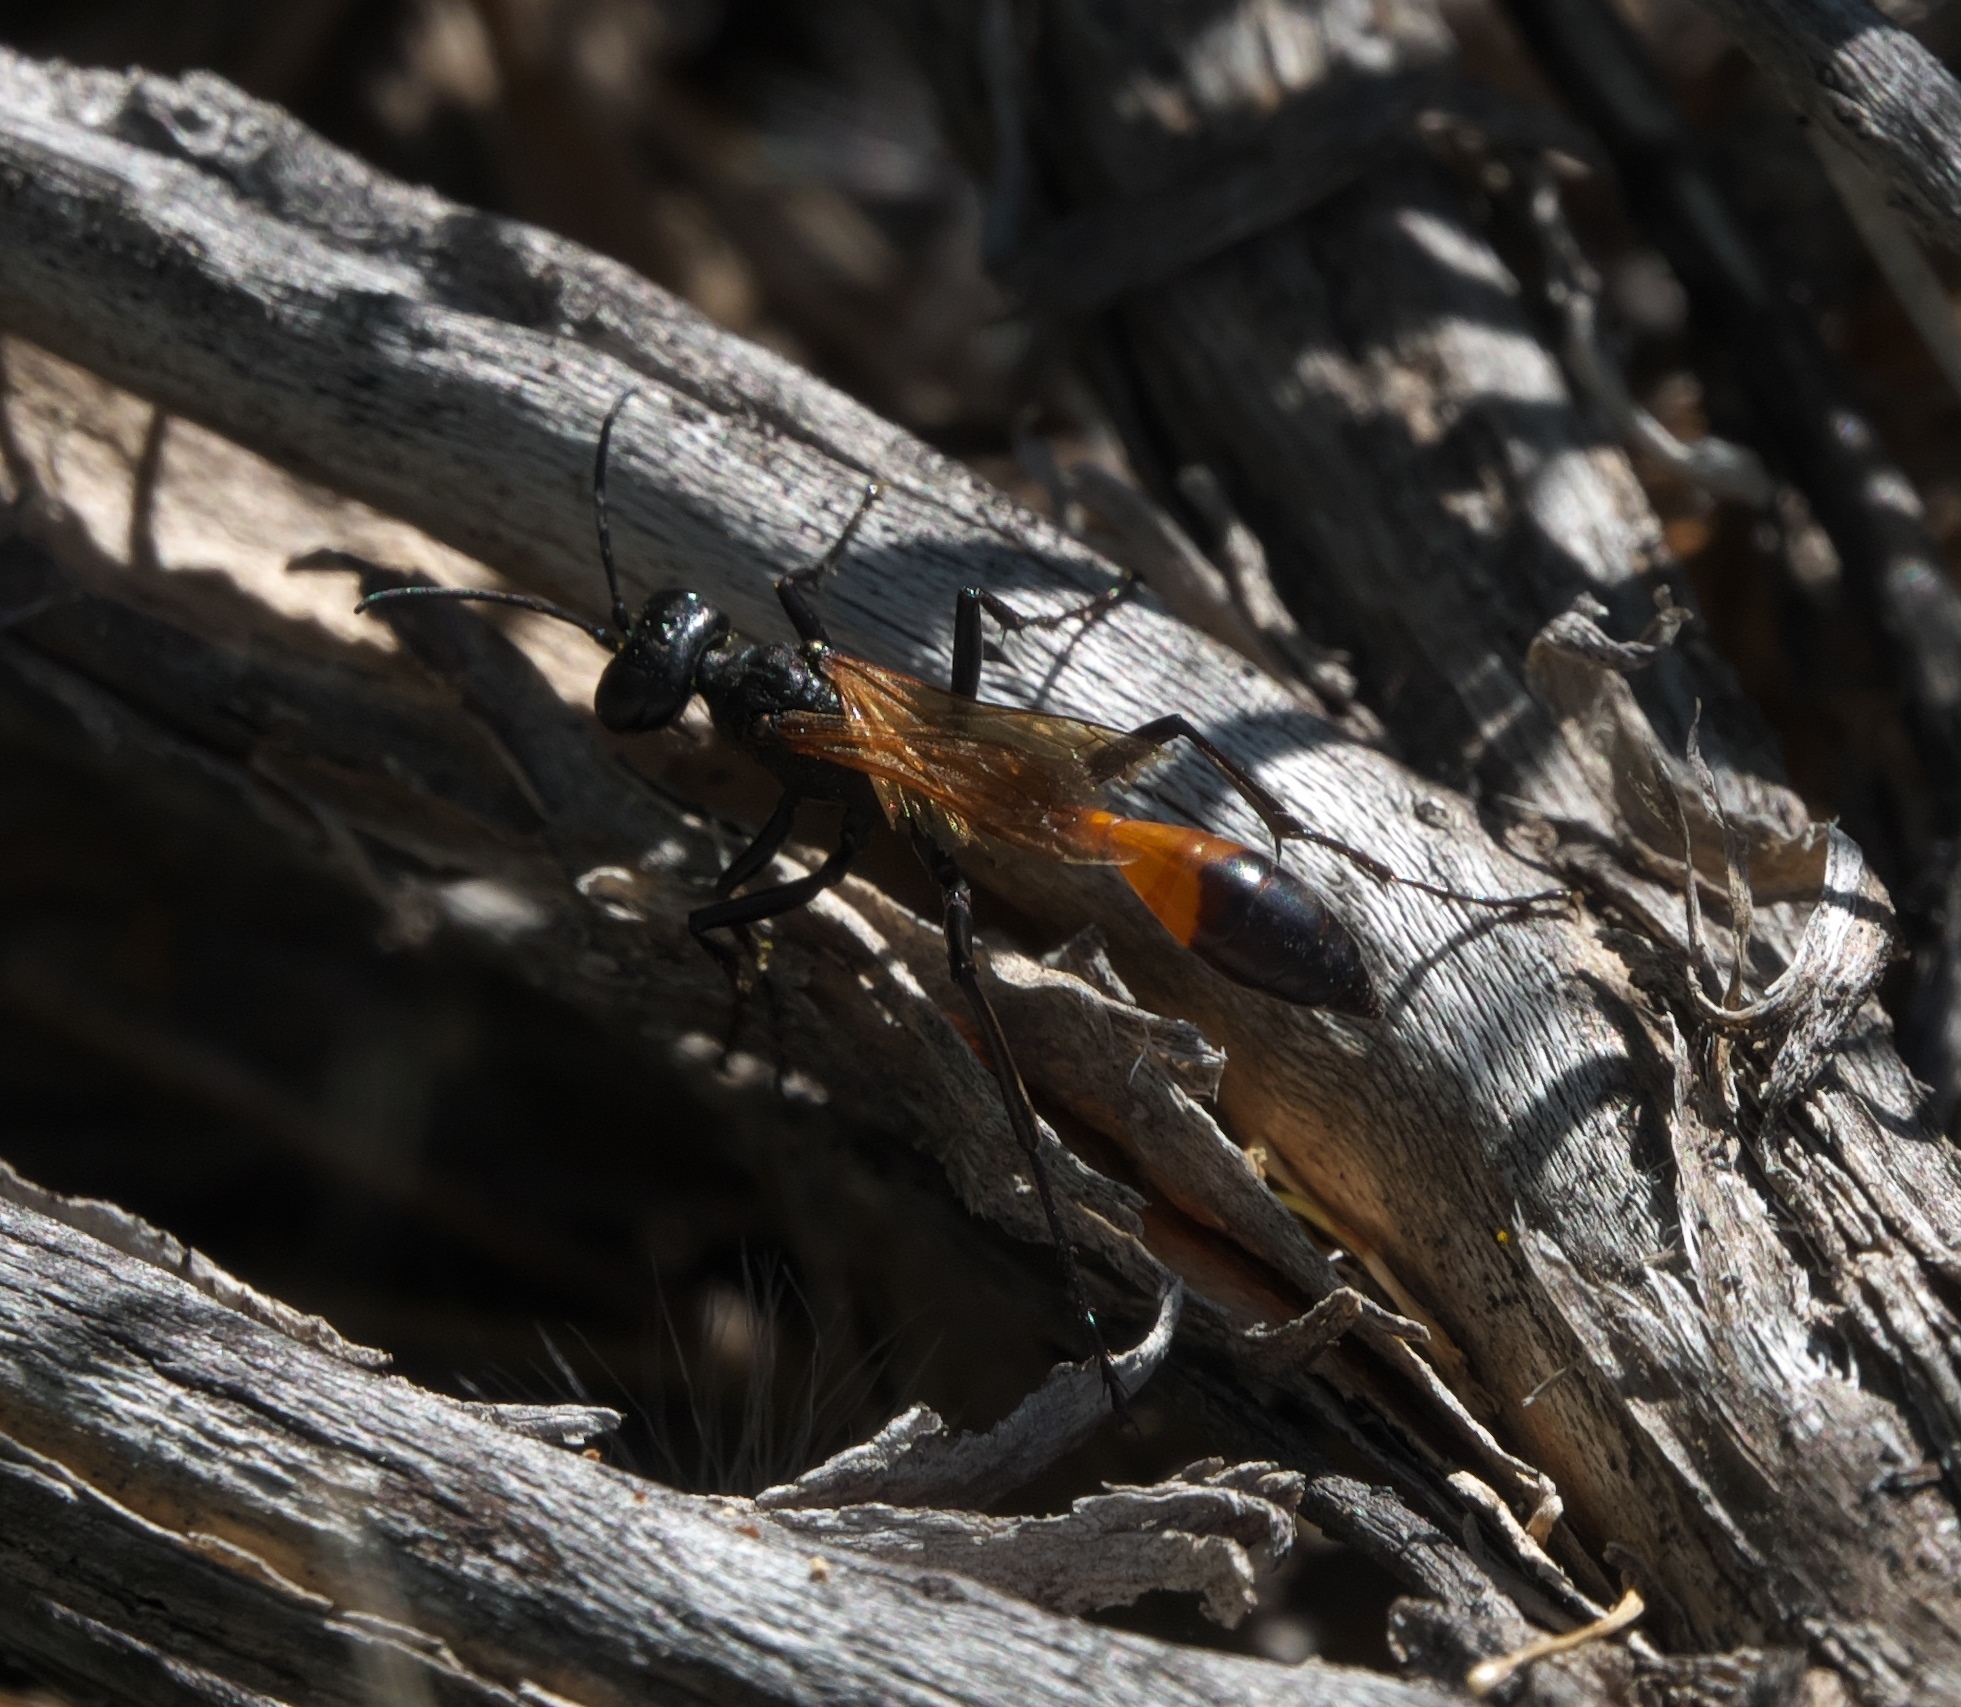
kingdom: Animalia
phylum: Arthropoda
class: Insecta
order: Hymenoptera
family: Sphecidae
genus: Ammophila
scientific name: Ammophila placida
